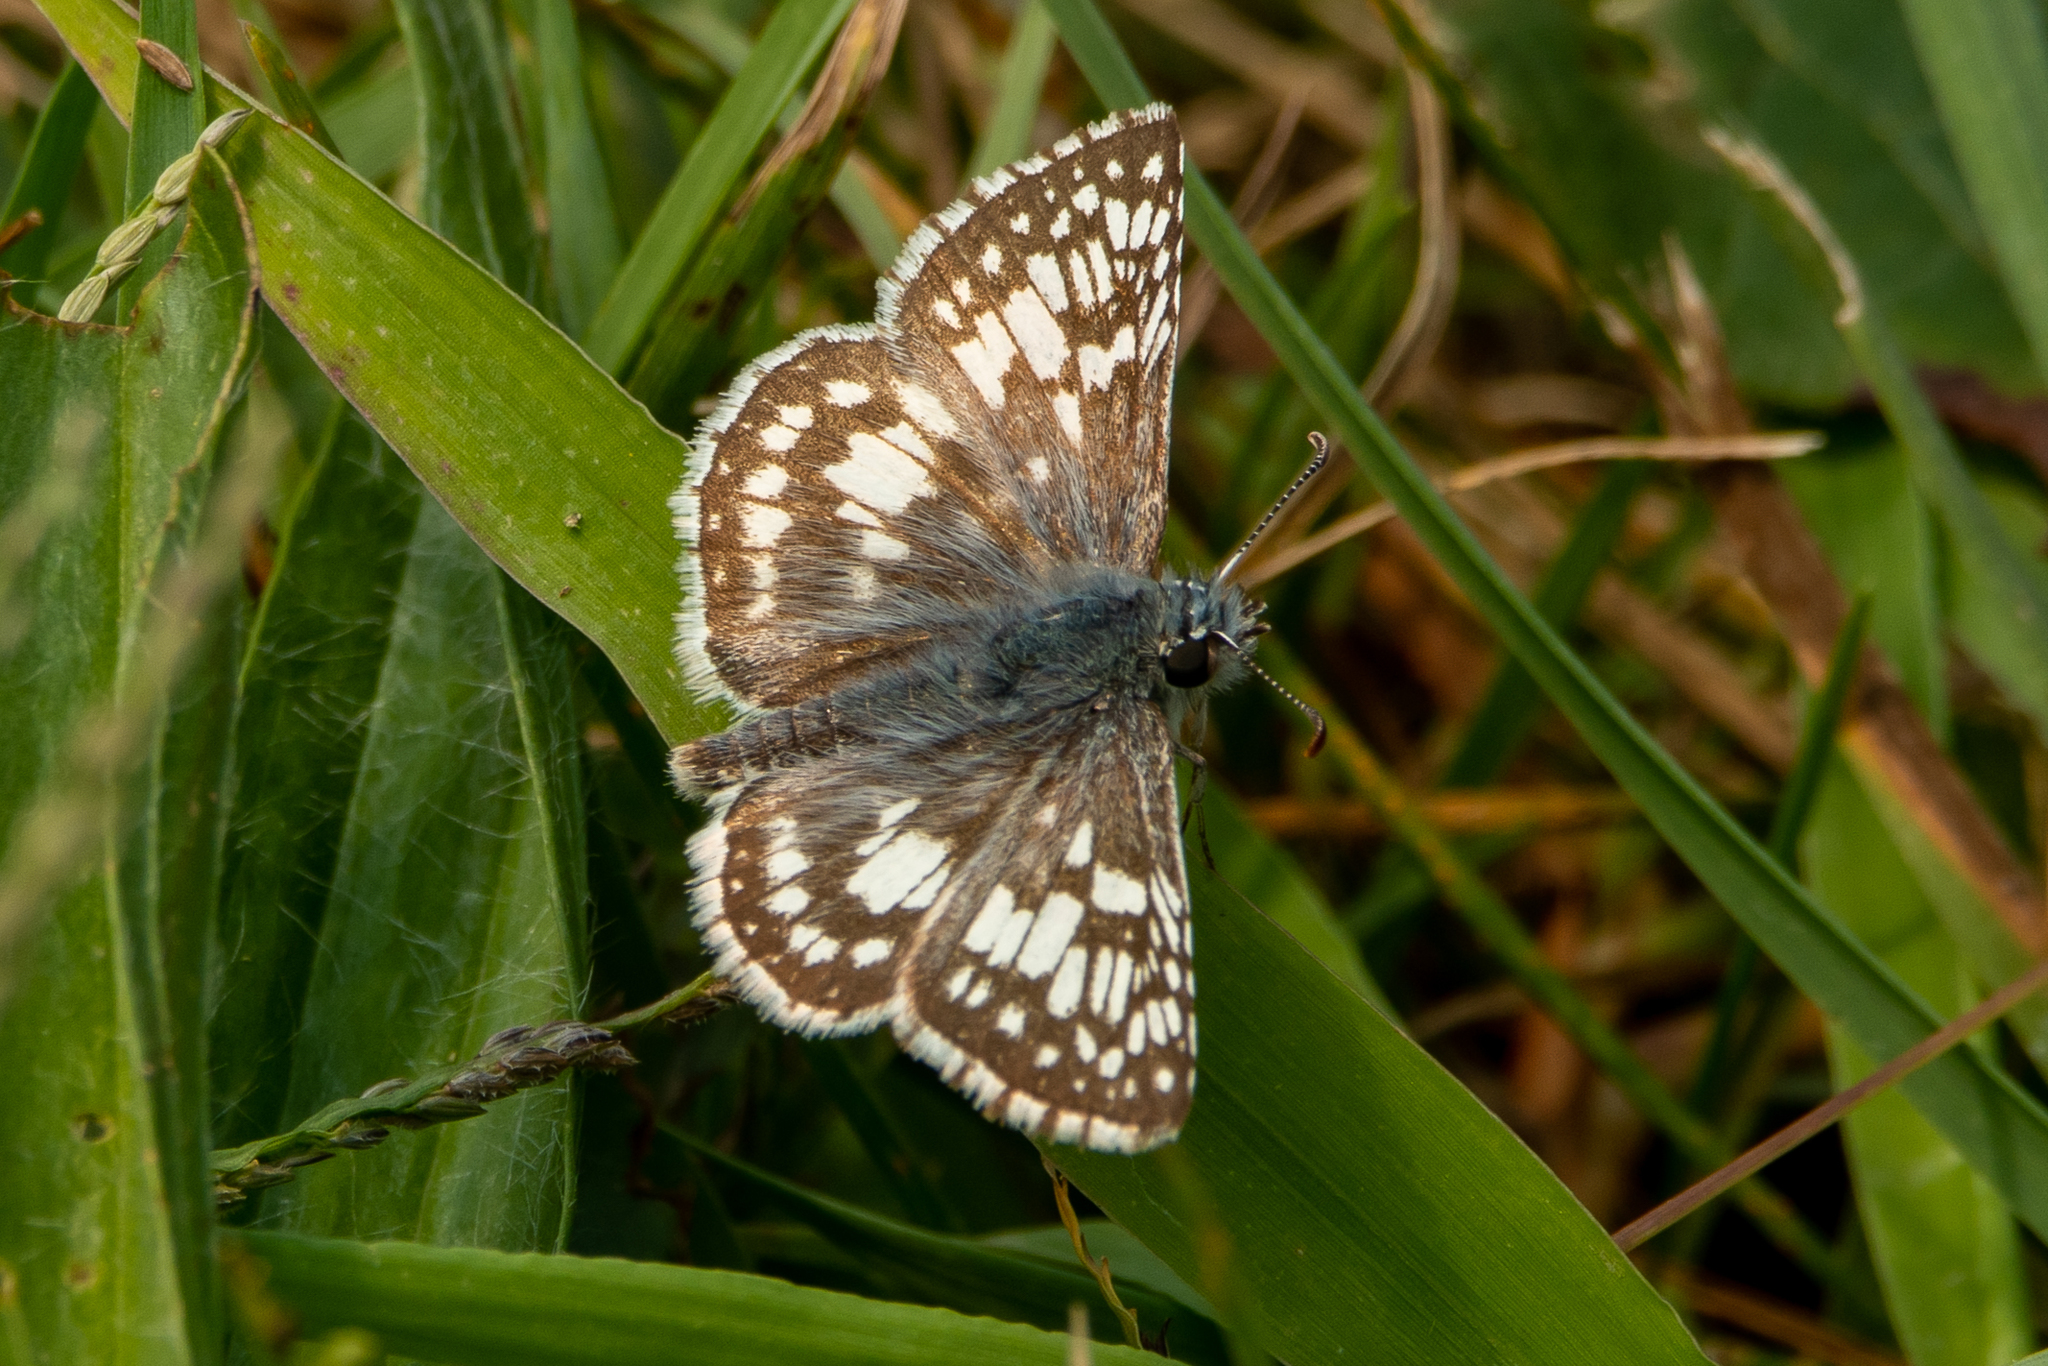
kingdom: Animalia
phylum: Arthropoda
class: Insecta
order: Lepidoptera
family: Hesperiidae
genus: Burnsius
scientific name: Burnsius communis
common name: Common checkered-skipper
